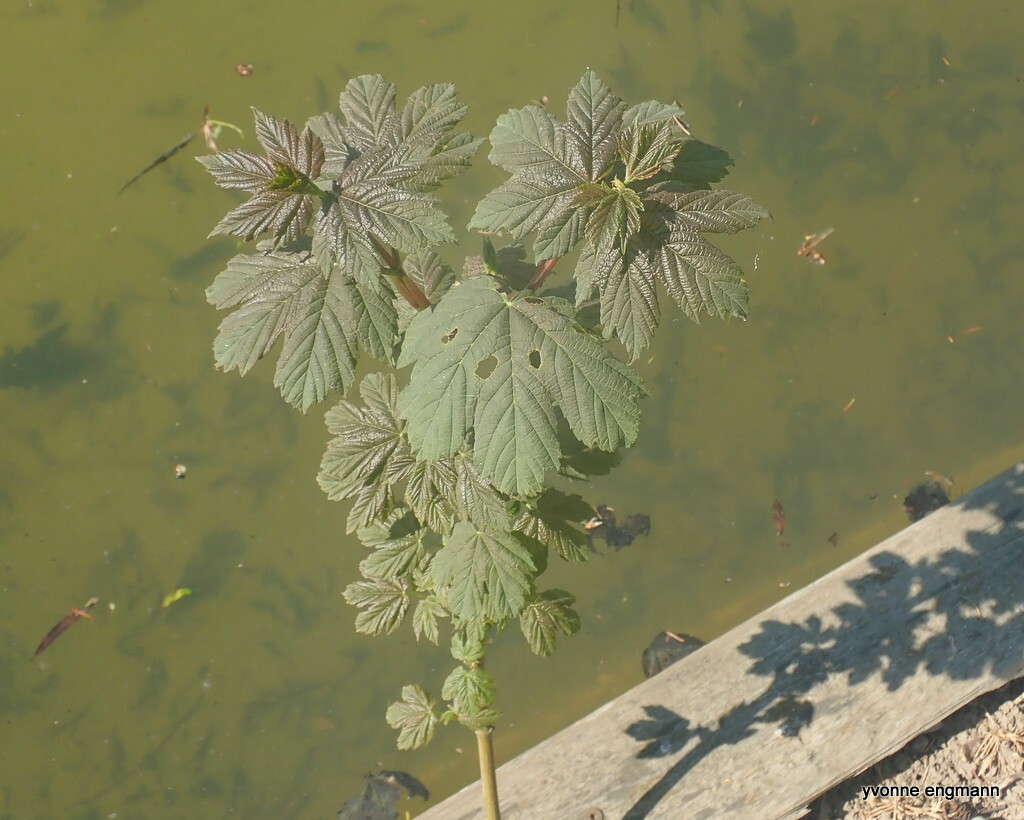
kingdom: Plantae
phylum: Tracheophyta
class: Magnoliopsida
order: Sapindales
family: Sapindaceae
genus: Acer
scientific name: Acer pseudoplatanus
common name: Sycamore
